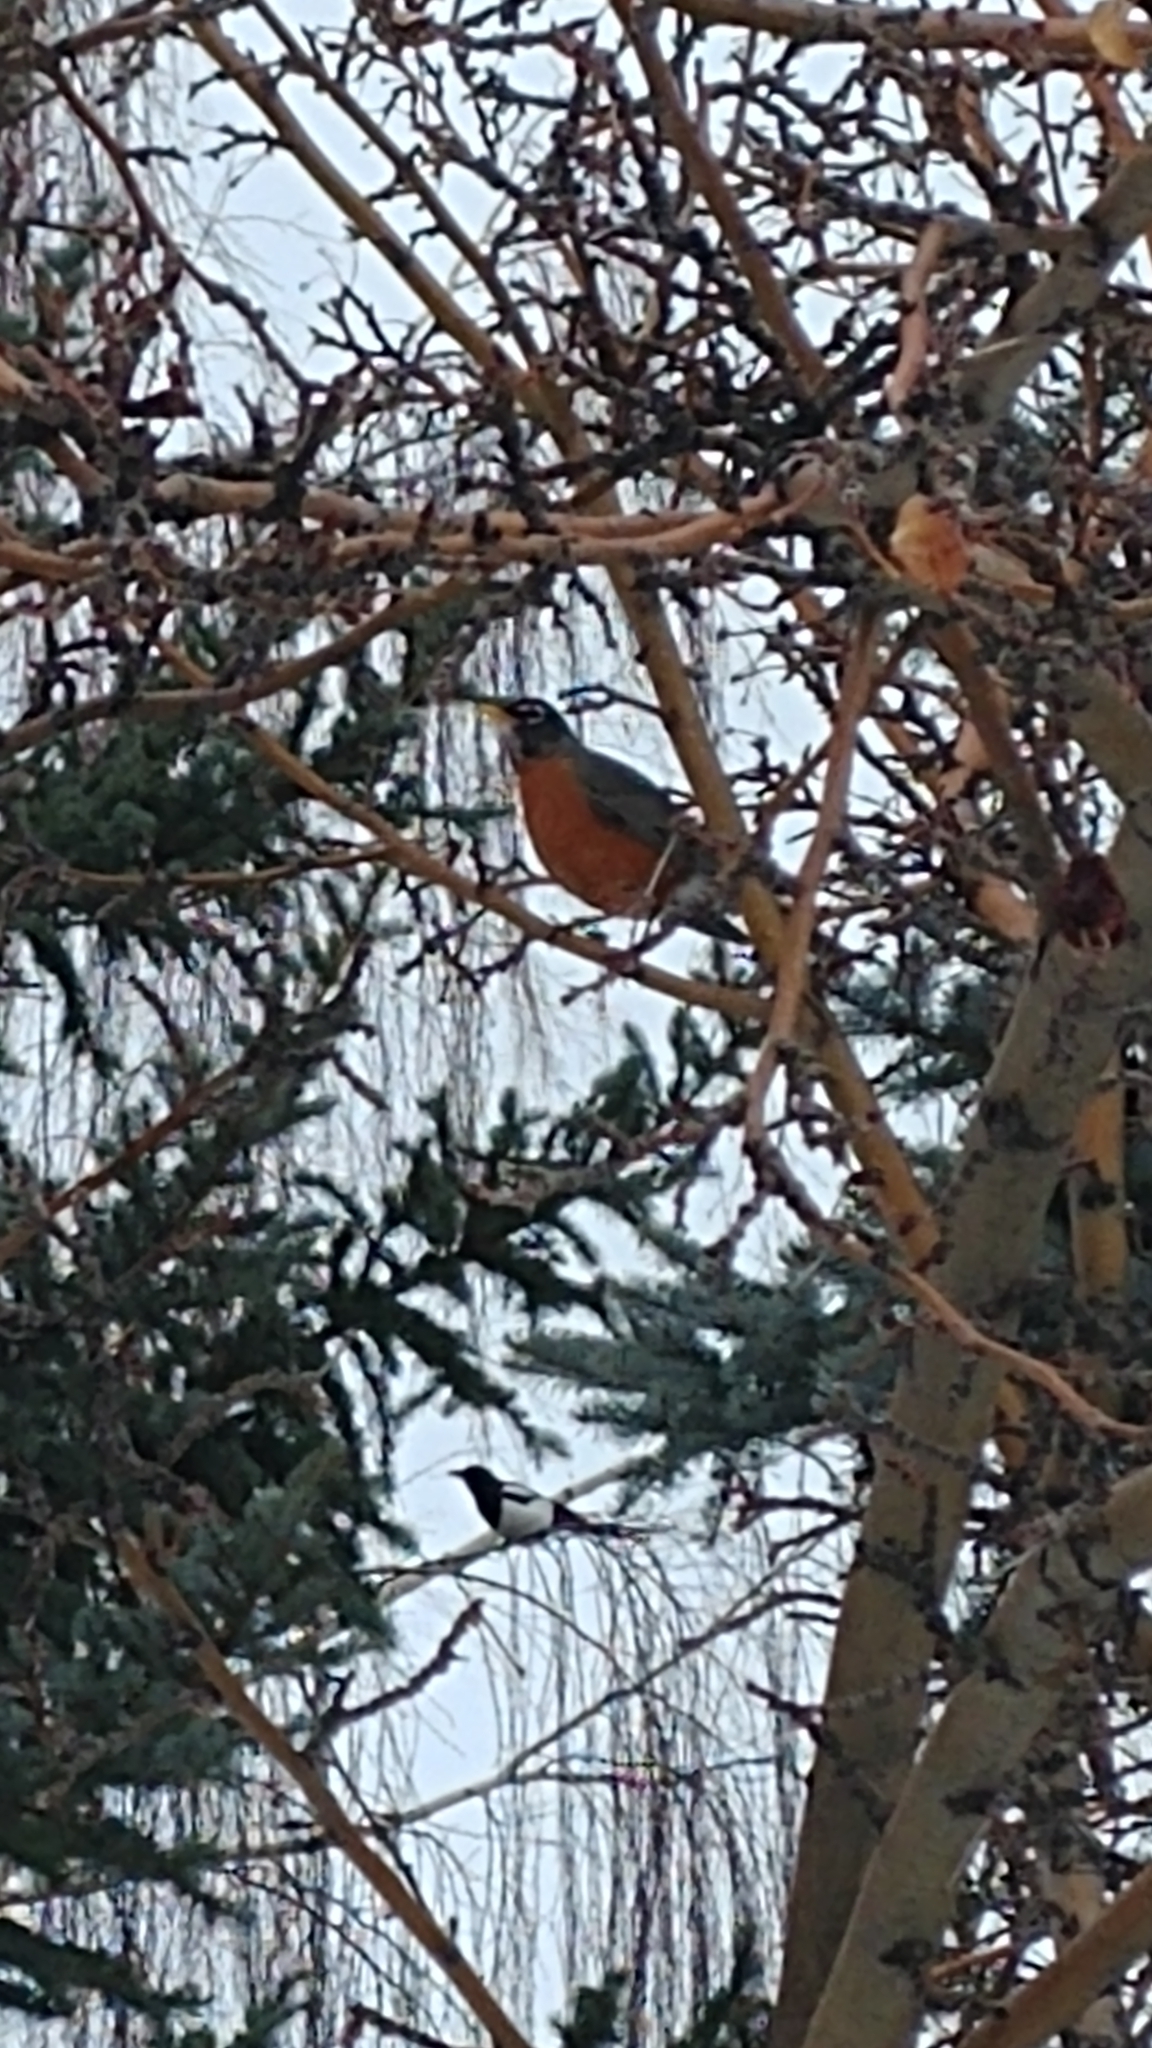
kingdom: Animalia
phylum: Chordata
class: Aves
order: Passeriformes
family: Turdidae
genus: Turdus
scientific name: Turdus migratorius
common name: American robin
